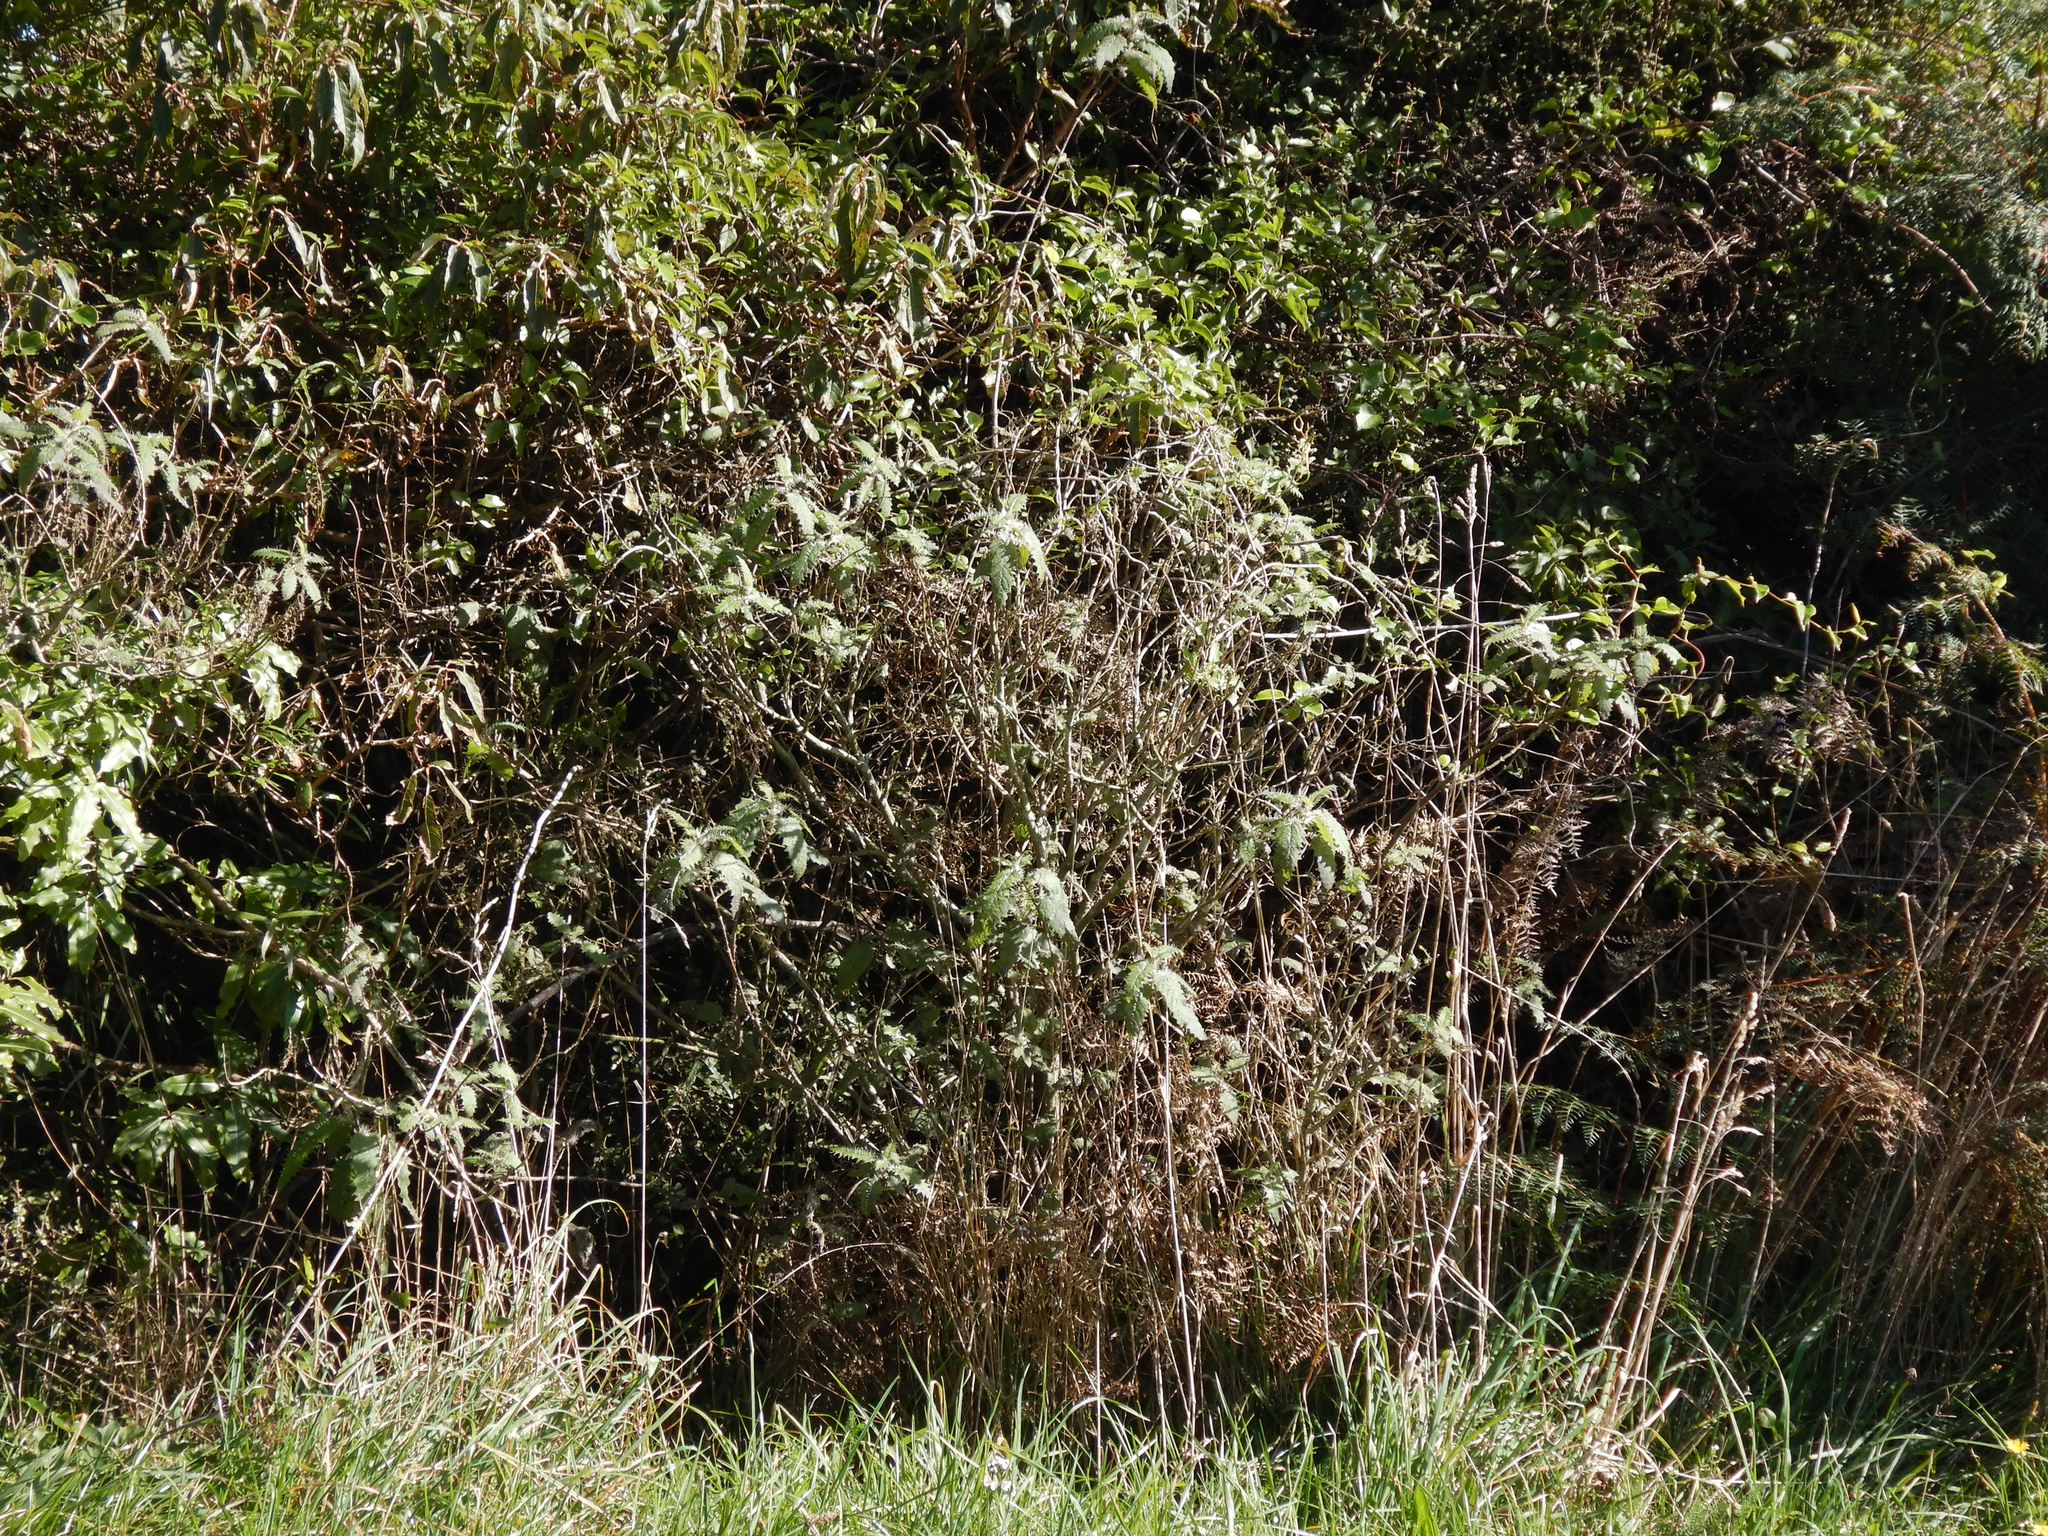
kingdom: Plantae
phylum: Tracheophyta
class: Magnoliopsida
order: Rosales
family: Urticaceae
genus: Urtica
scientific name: Urtica ferox
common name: Tree nettle
